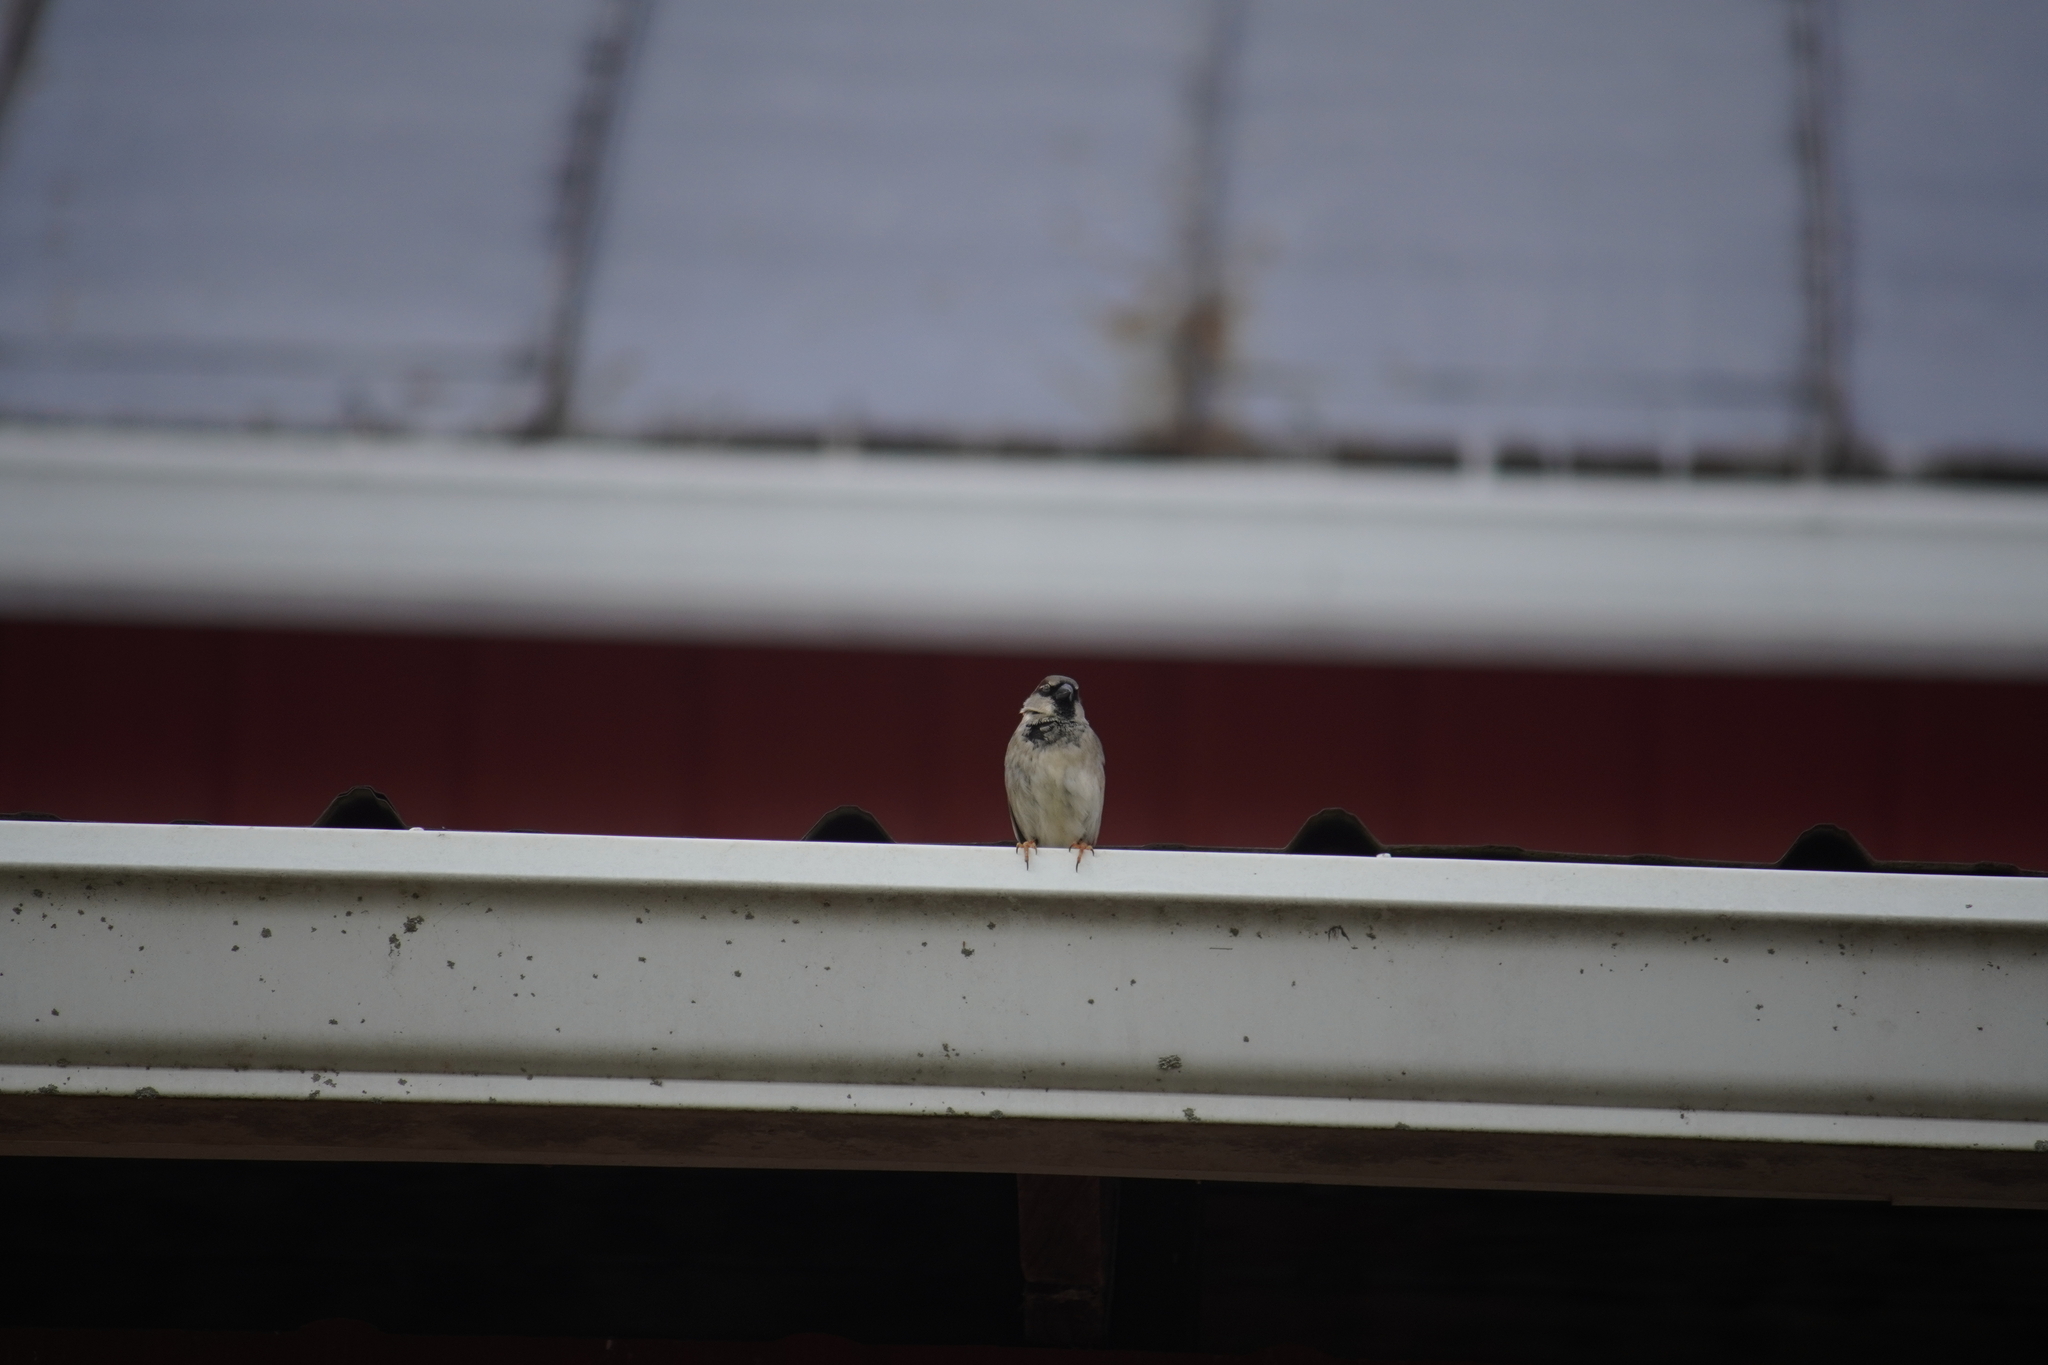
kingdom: Animalia
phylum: Chordata
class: Aves
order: Passeriformes
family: Passeridae
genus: Passer
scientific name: Passer domesticus
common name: House sparrow
